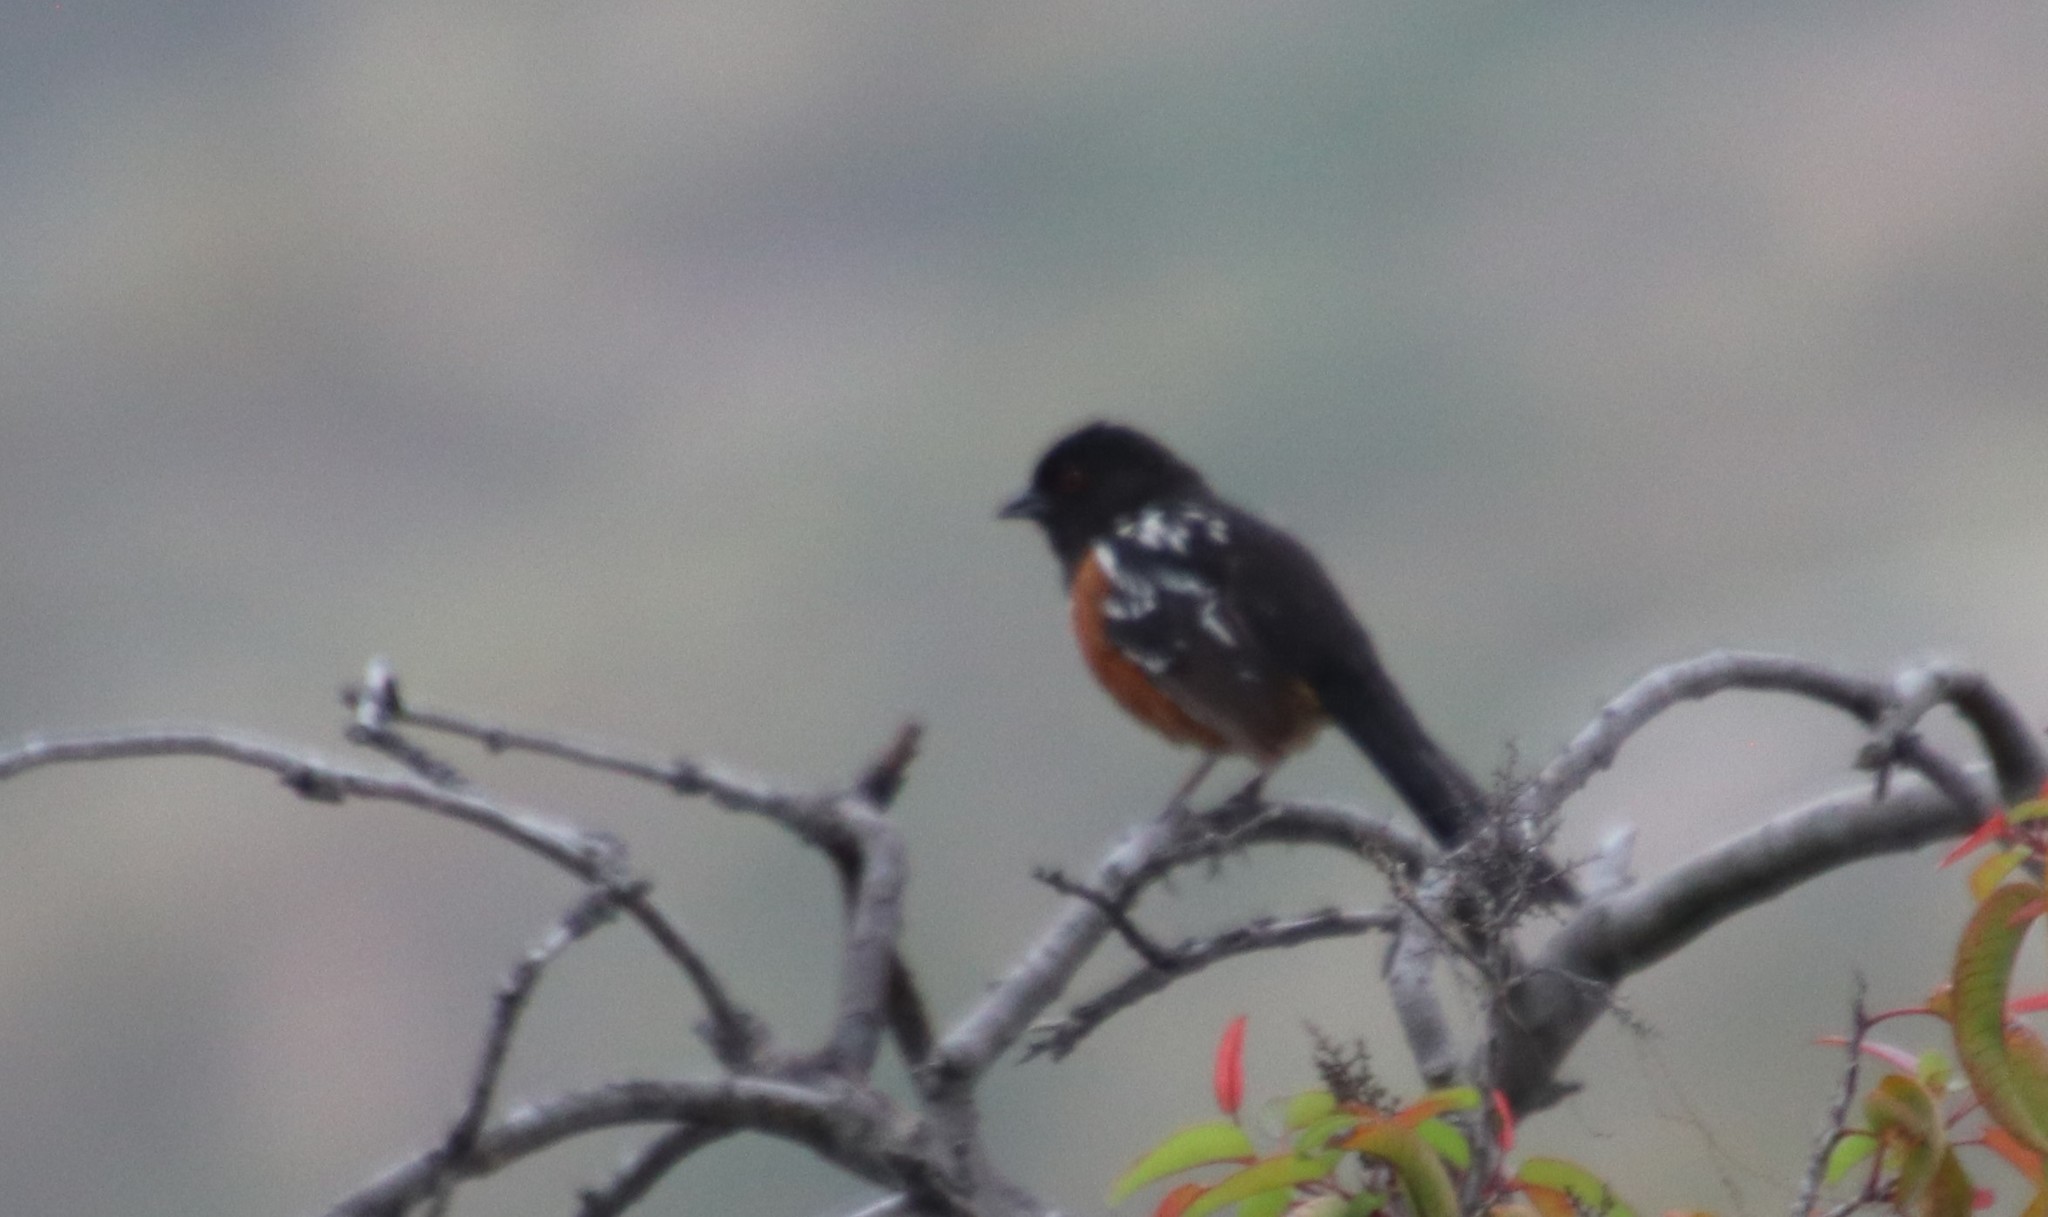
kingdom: Animalia
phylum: Chordata
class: Aves
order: Passeriformes
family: Passerellidae
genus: Pipilo
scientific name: Pipilo maculatus
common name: Spotted towhee
